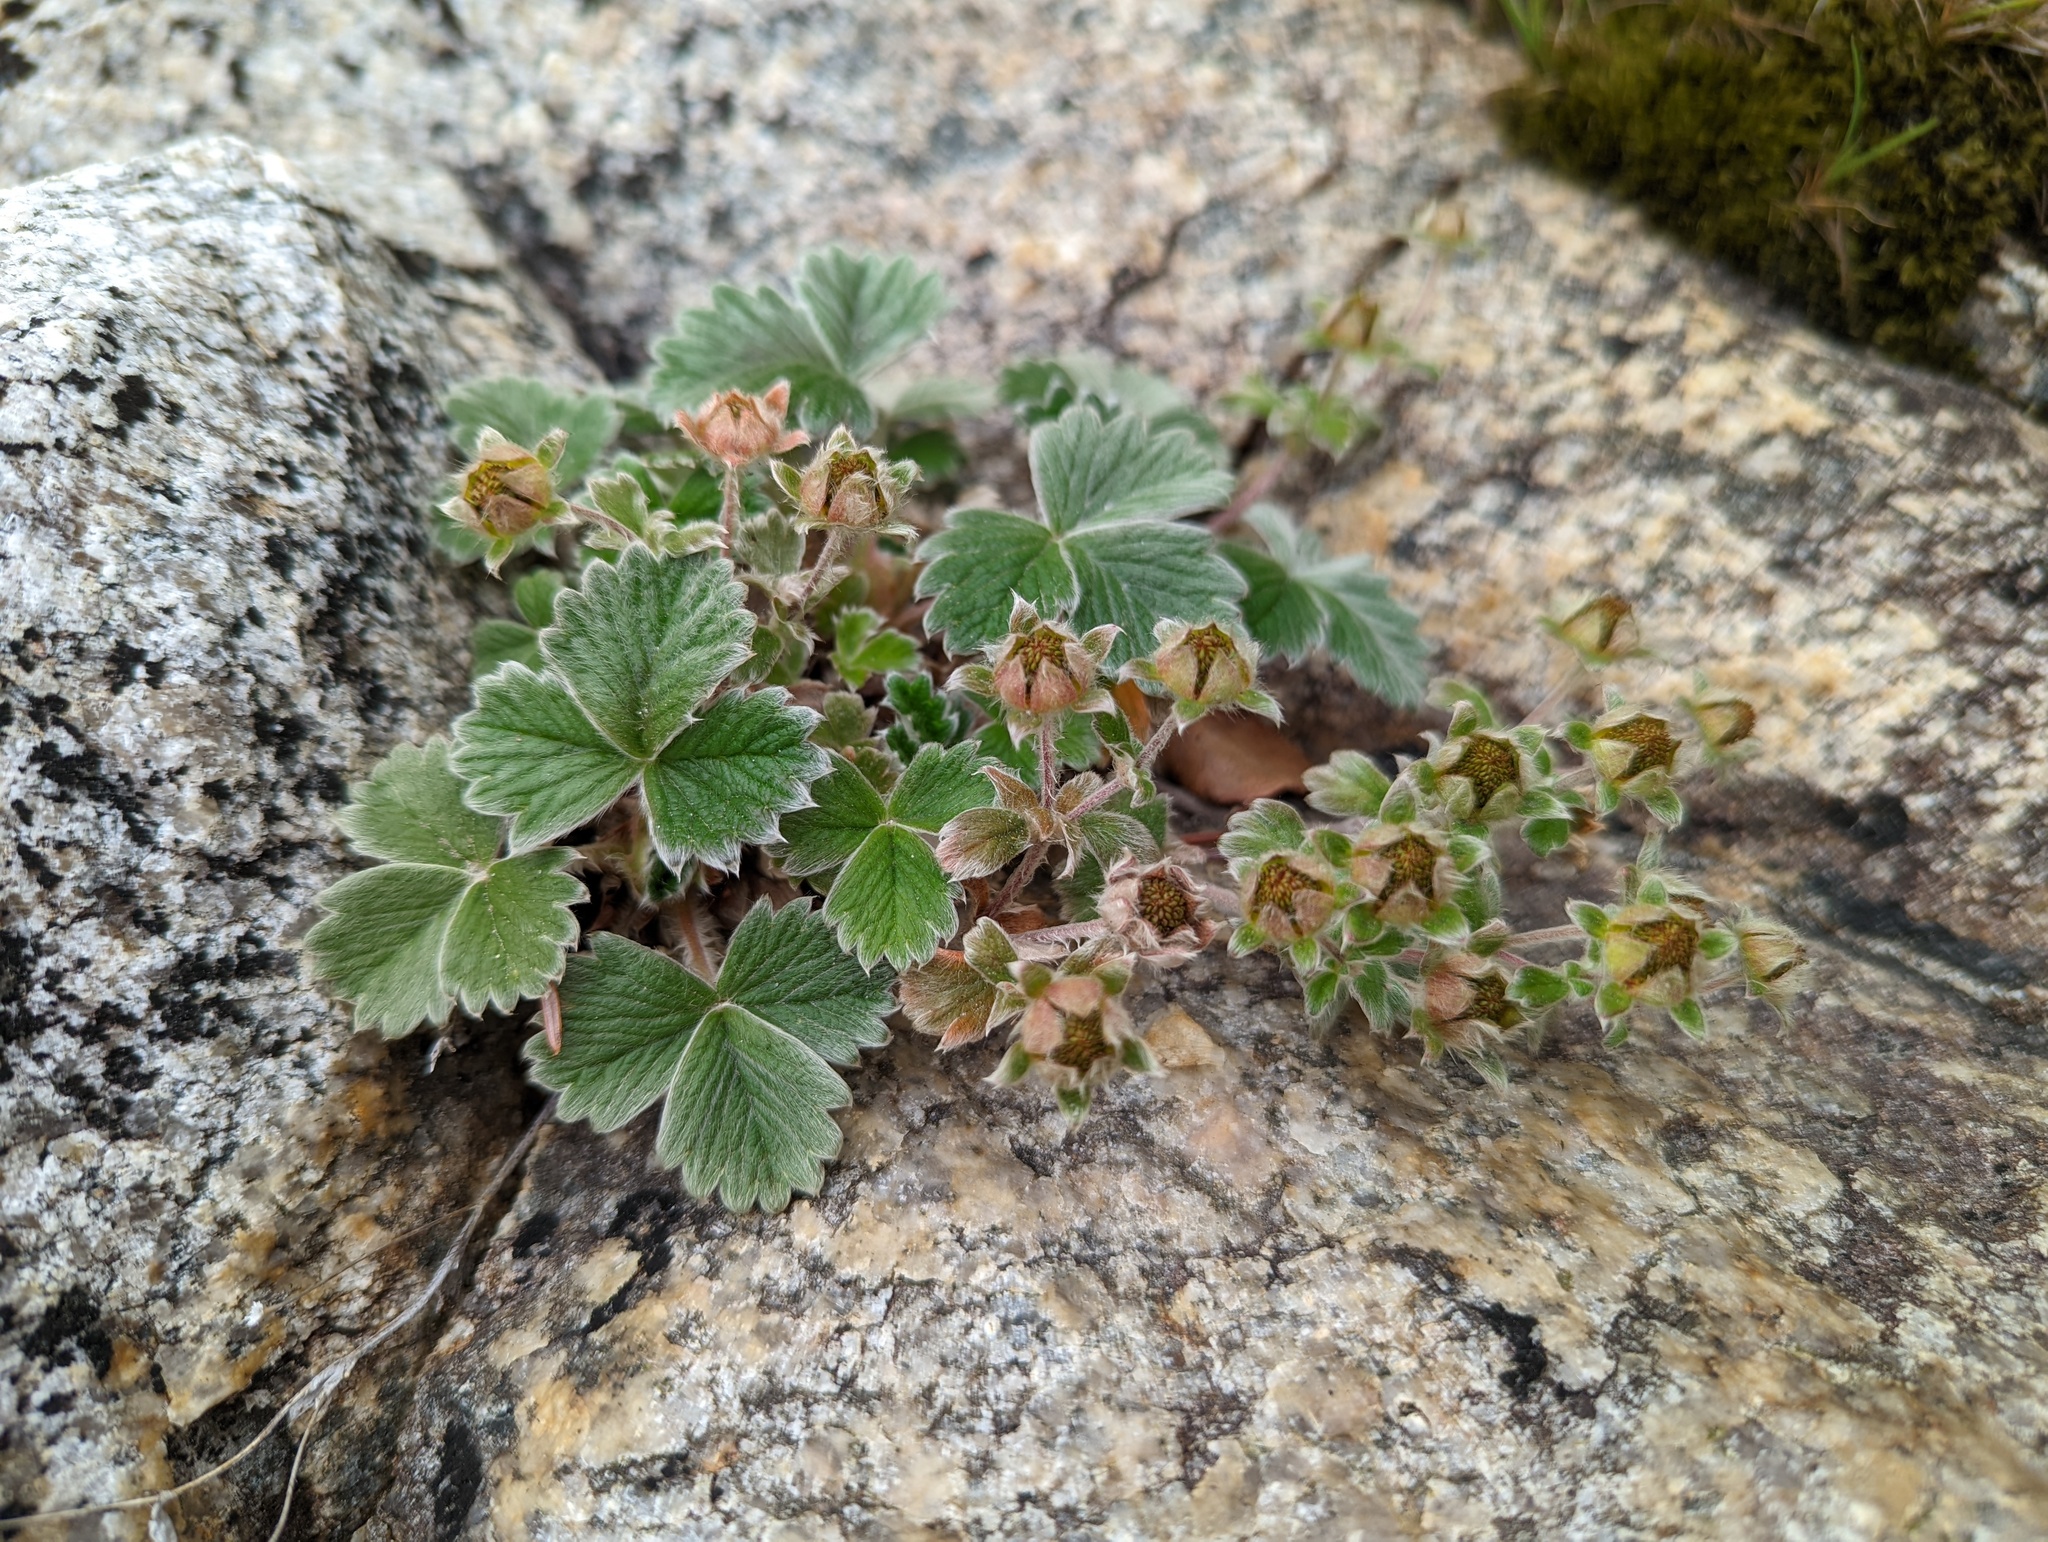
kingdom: Plantae
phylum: Tracheophyta
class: Magnoliopsida
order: Rosales
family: Rosaceae
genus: Potentilla
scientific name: Potentilla villosa
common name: Northern cinquefoil
